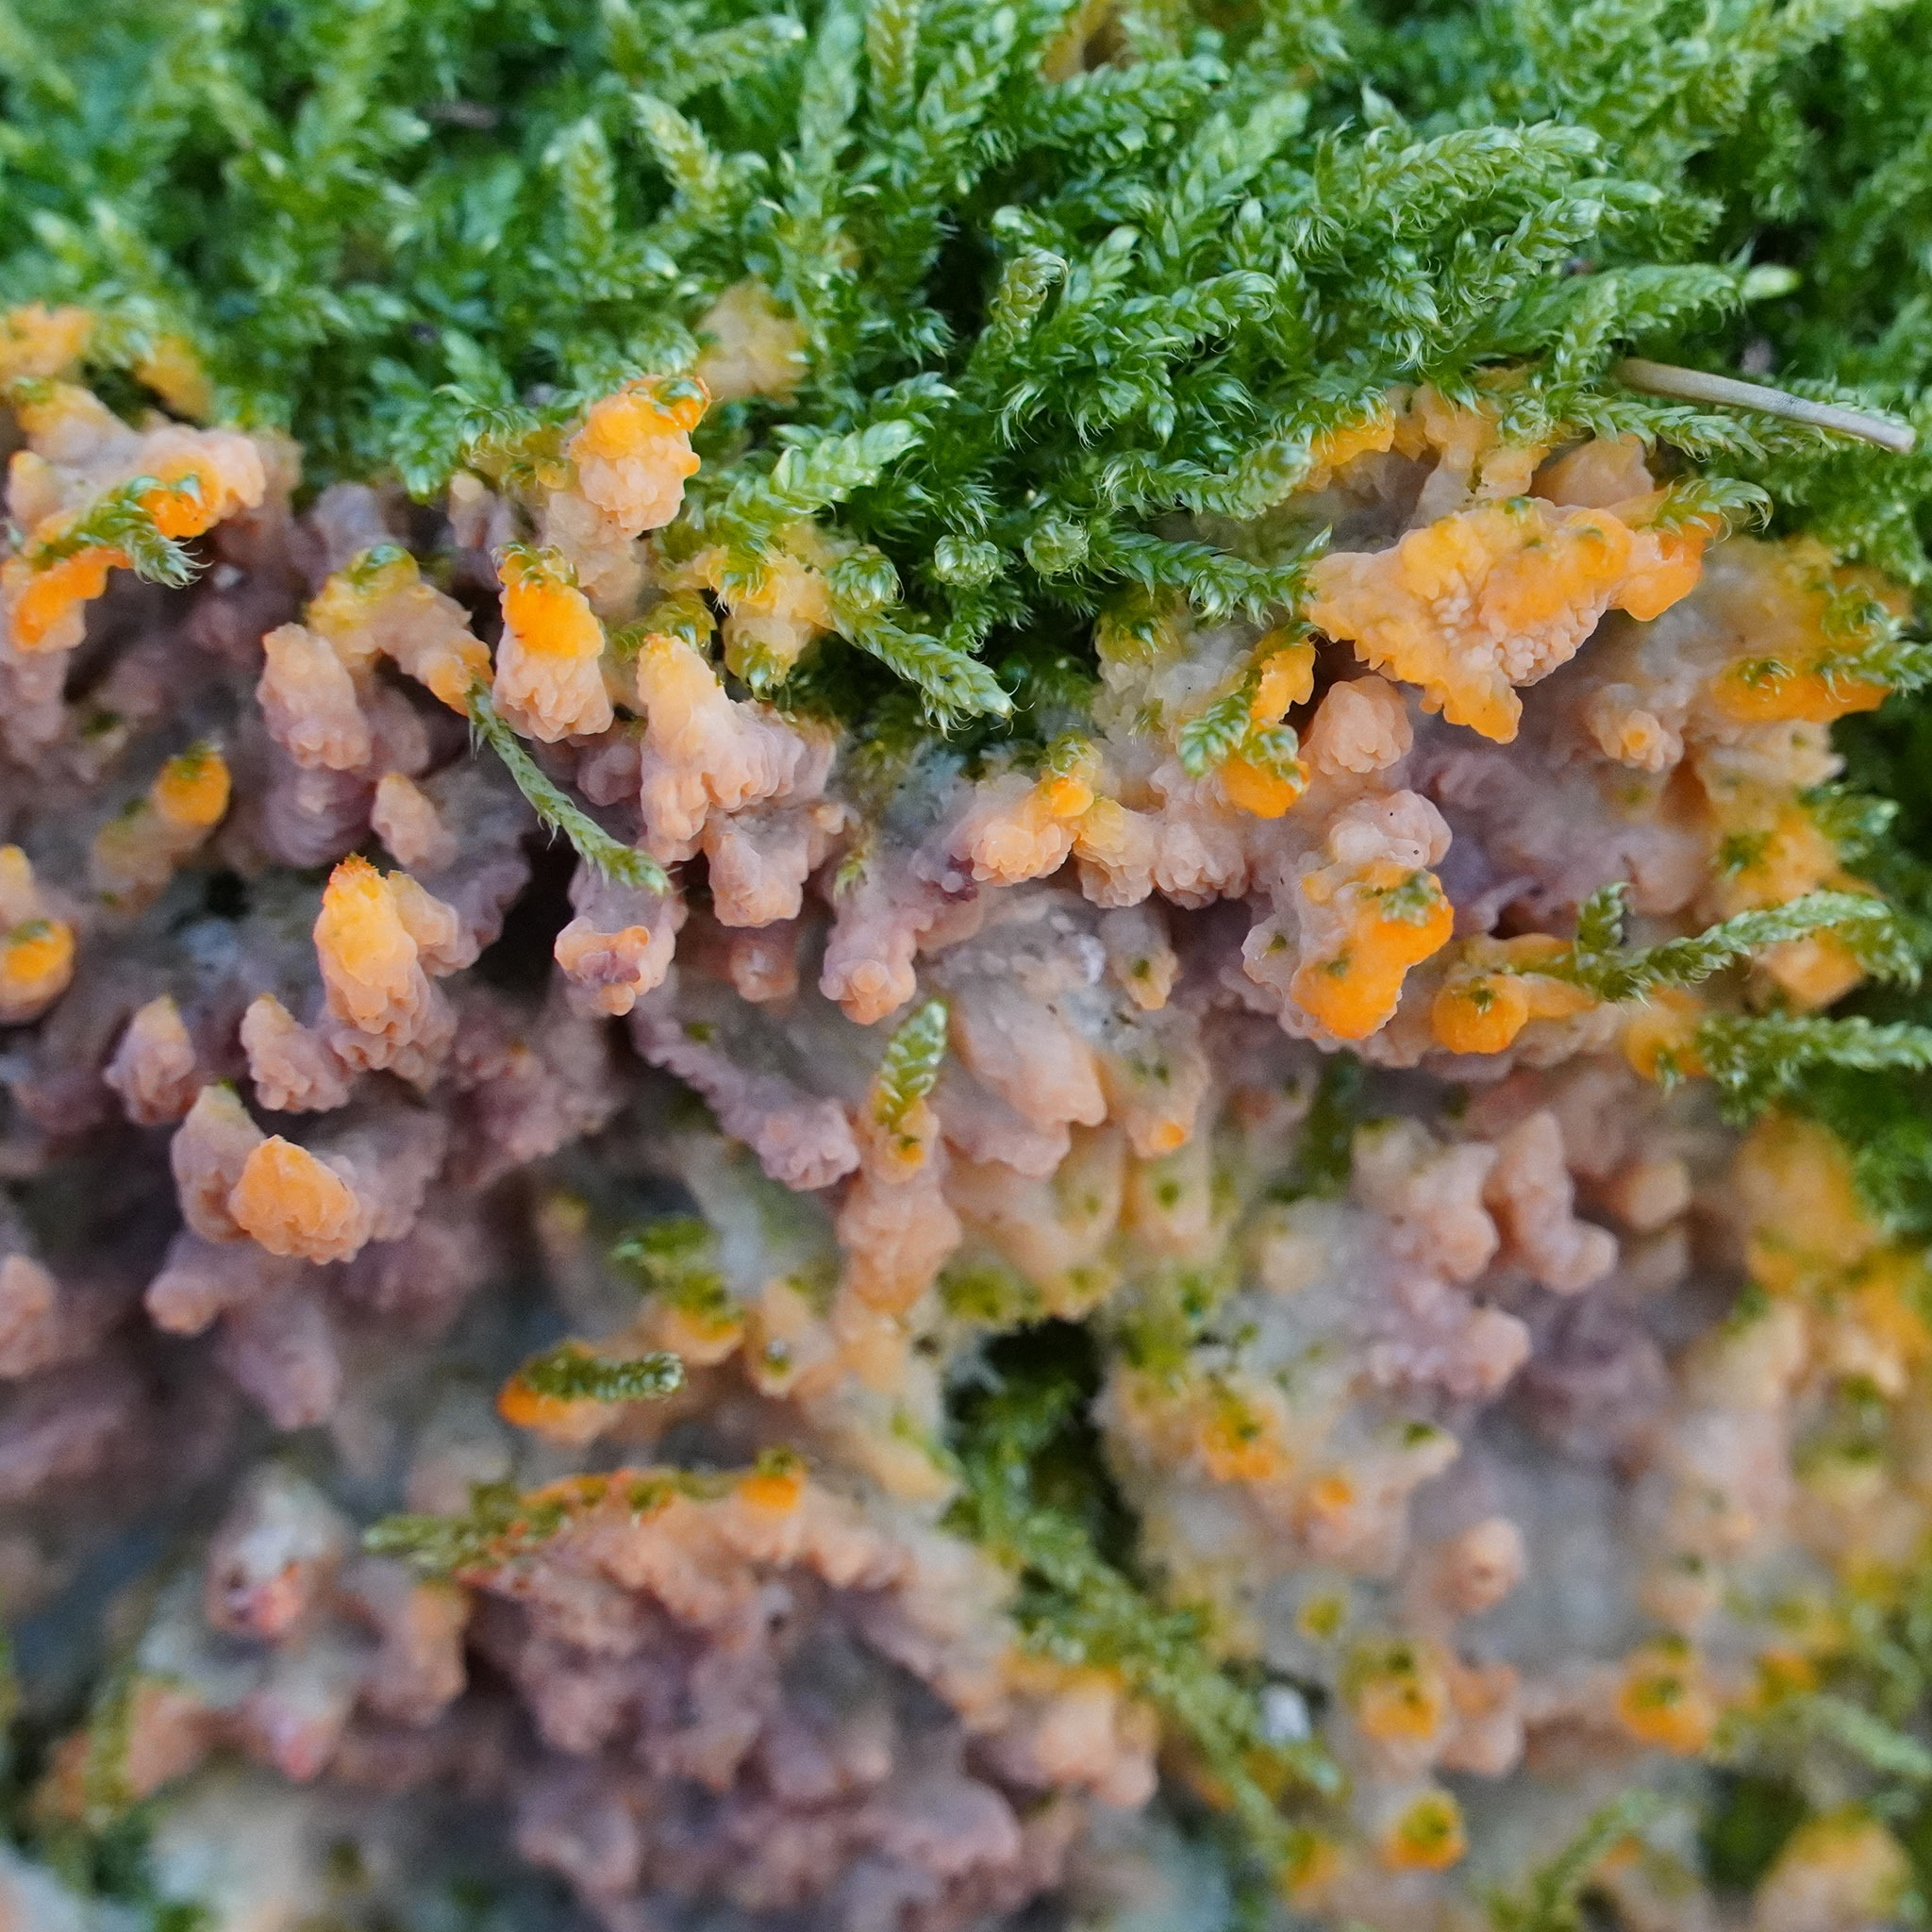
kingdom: Fungi
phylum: Basidiomycota
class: Agaricomycetes
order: Polyporales
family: Meruliaceae
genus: Phlebia
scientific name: Phlebia radiata
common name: Wrinkled crust
